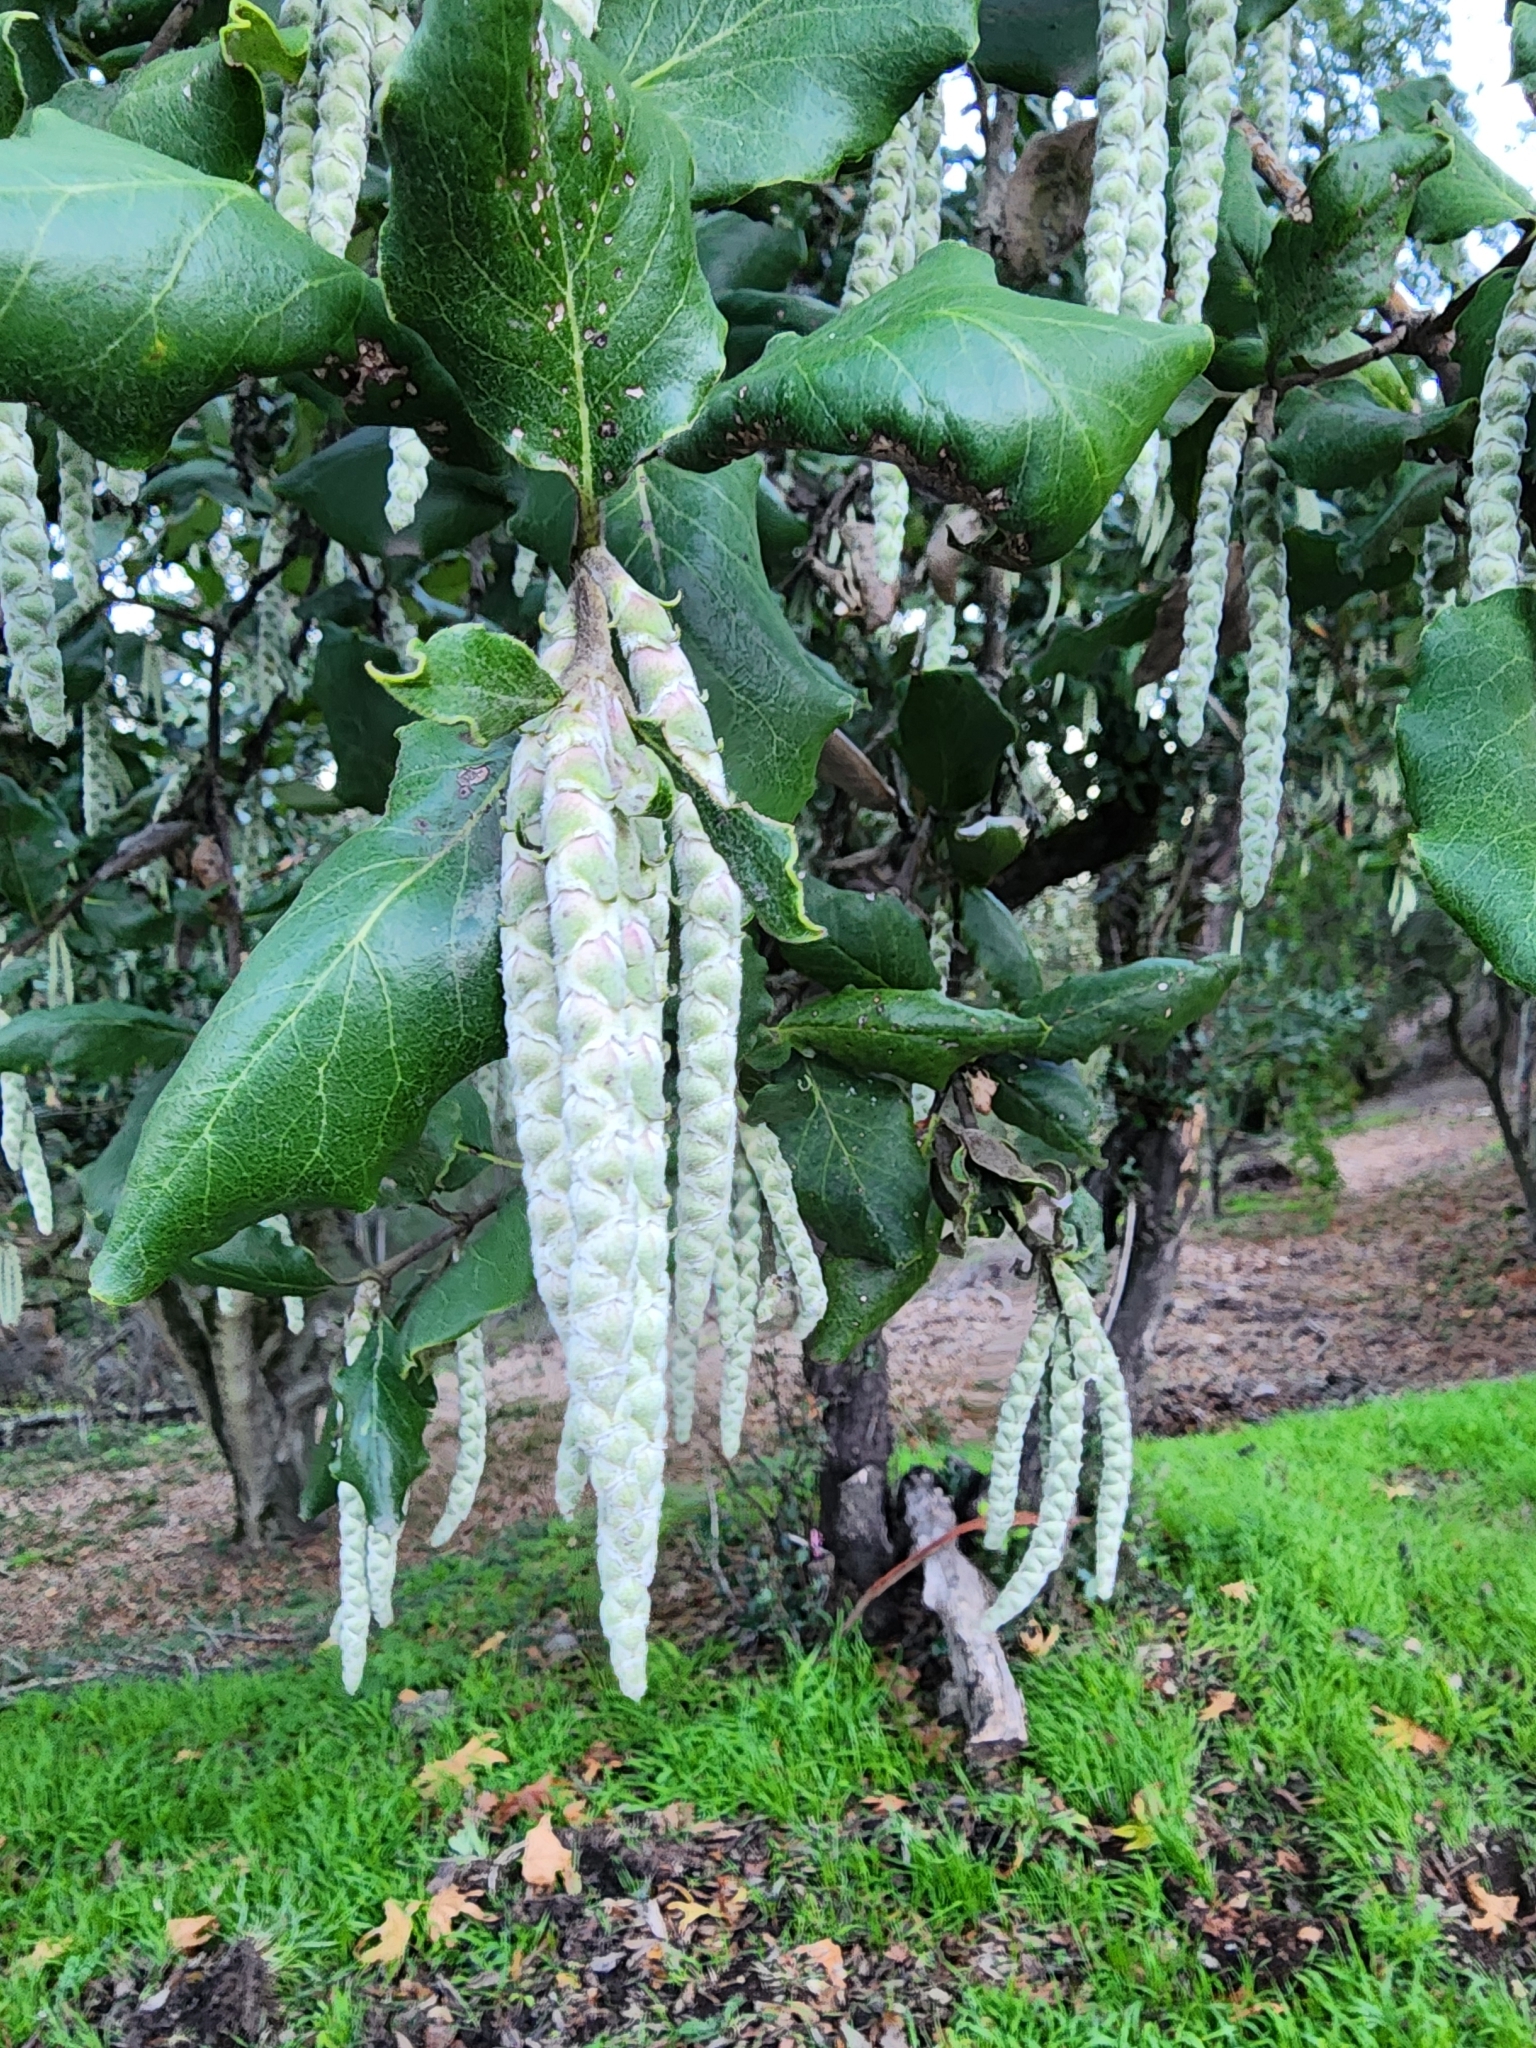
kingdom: Plantae
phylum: Tracheophyta
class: Magnoliopsida
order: Garryales
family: Garryaceae
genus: Garrya
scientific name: Garrya elliptica
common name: Silk-tassel
